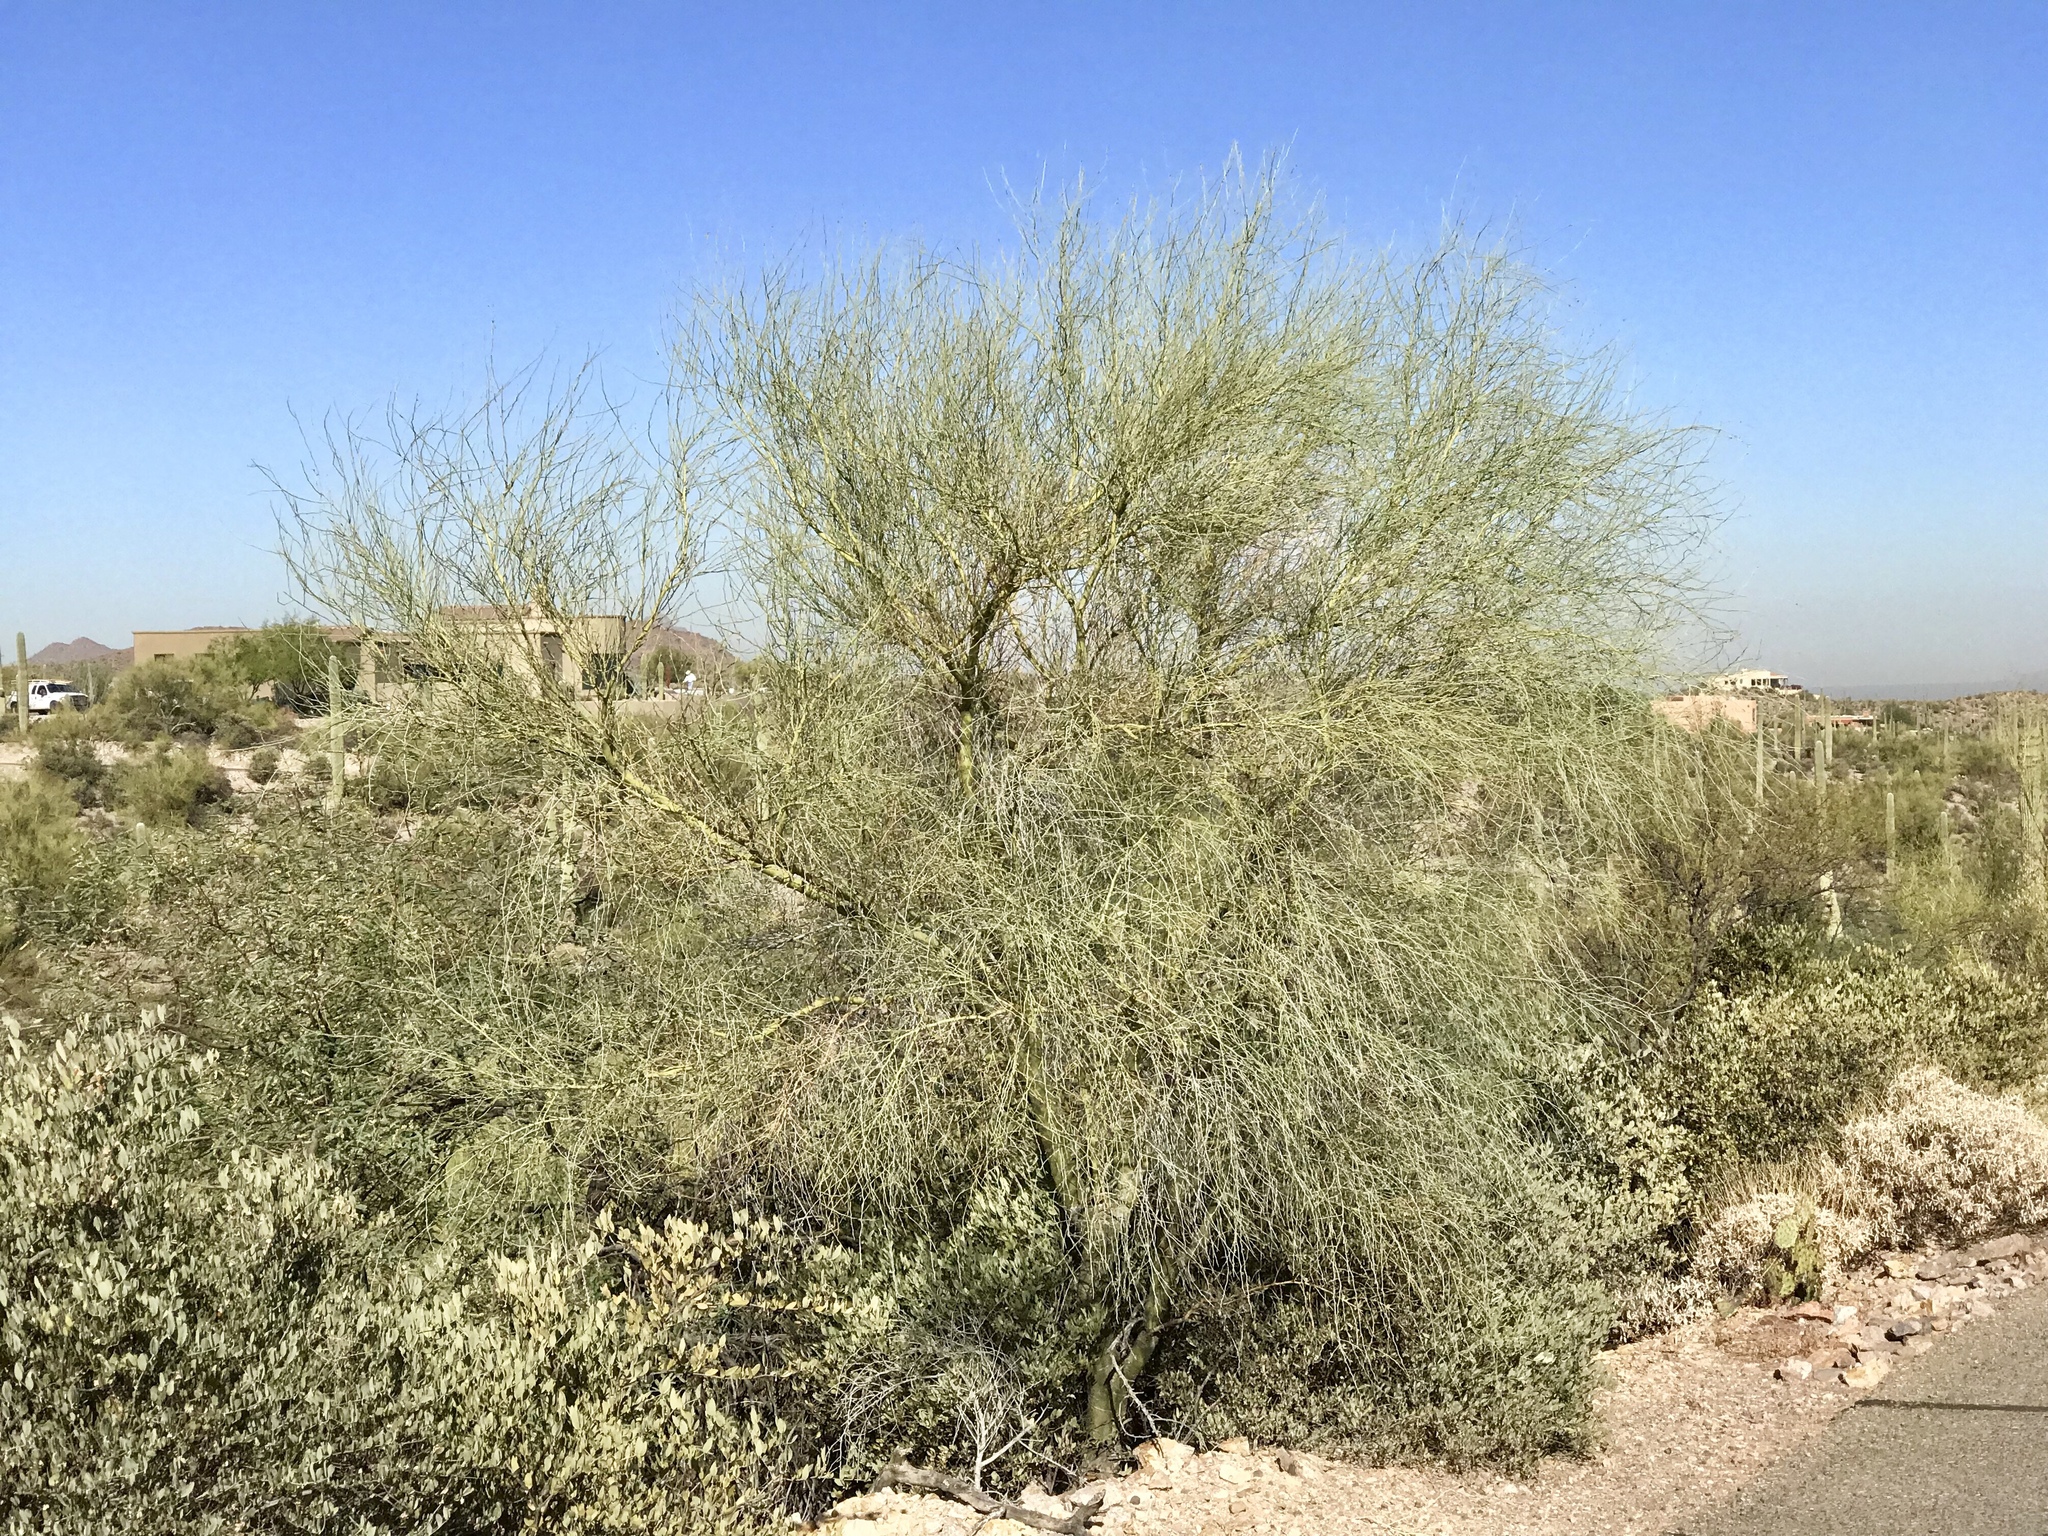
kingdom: Plantae
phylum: Tracheophyta
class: Magnoliopsida
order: Fabales
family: Fabaceae
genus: Parkinsonia
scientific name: Parkinsonia microphylla
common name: Yellow paloverde
